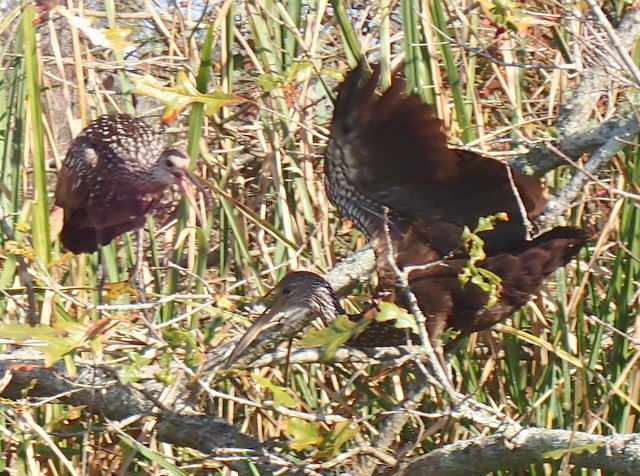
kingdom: Animalia
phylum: Chordata
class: Aves
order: Gruiformes
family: Aramidae
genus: Aramus
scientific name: Aramus guarauna
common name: Limpkin
